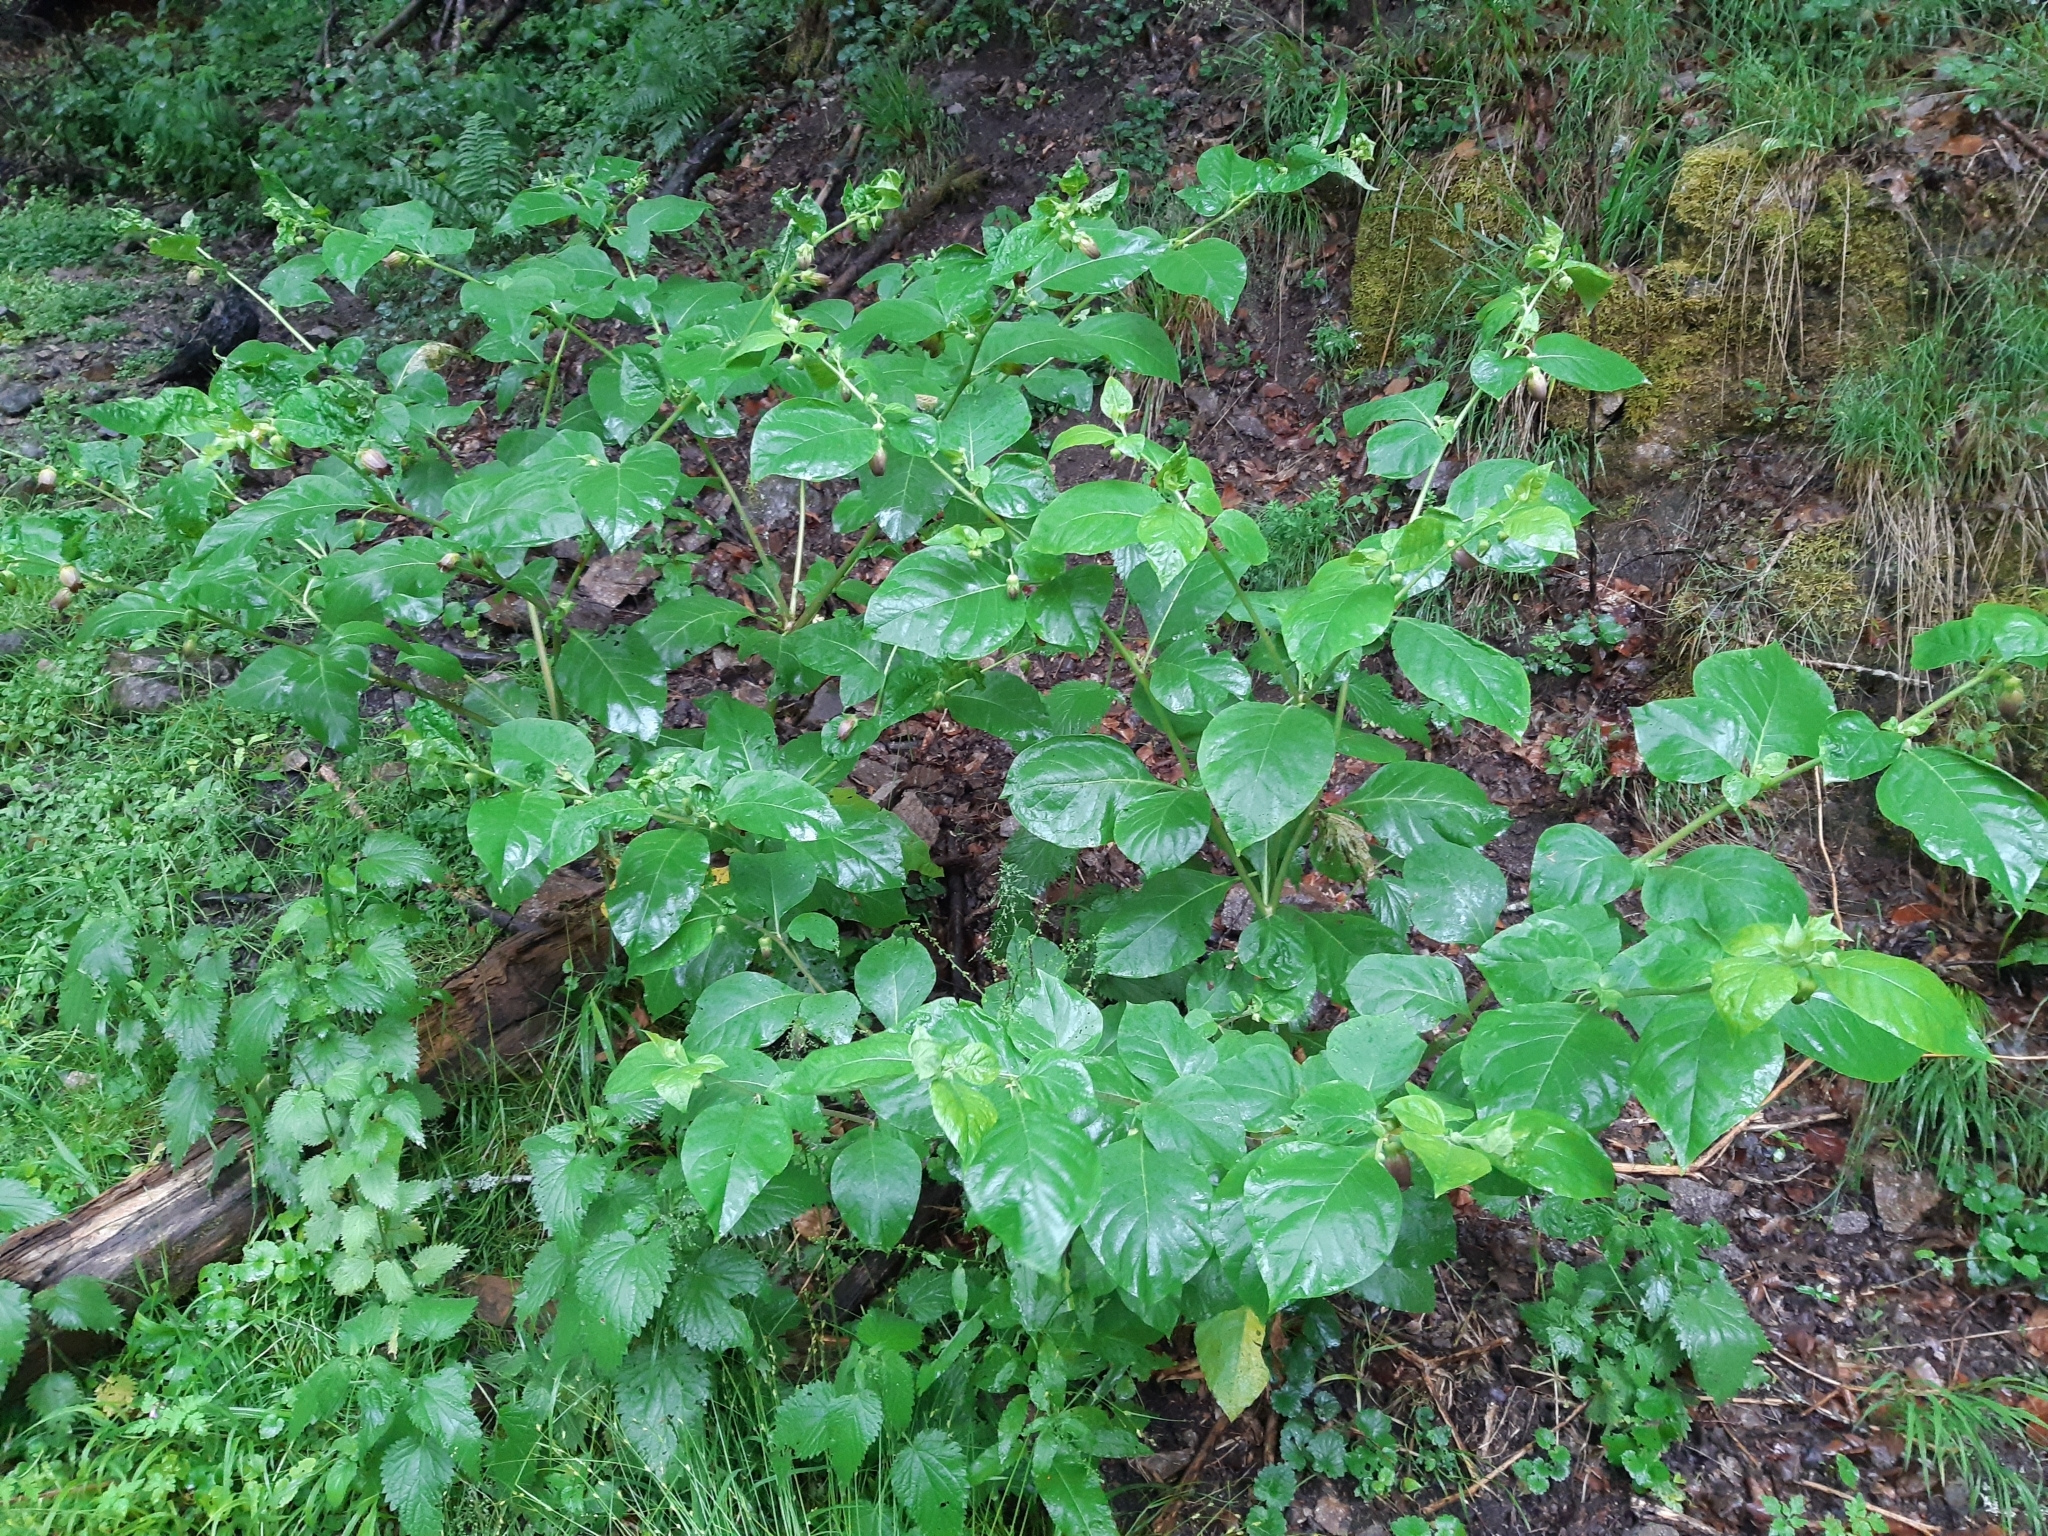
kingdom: Plantae
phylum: Tracheophyta
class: Magnoliopsida
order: Solanales
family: Solanaceae
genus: Atropa
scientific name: Atropa belladonna
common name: Deadly nightshade
